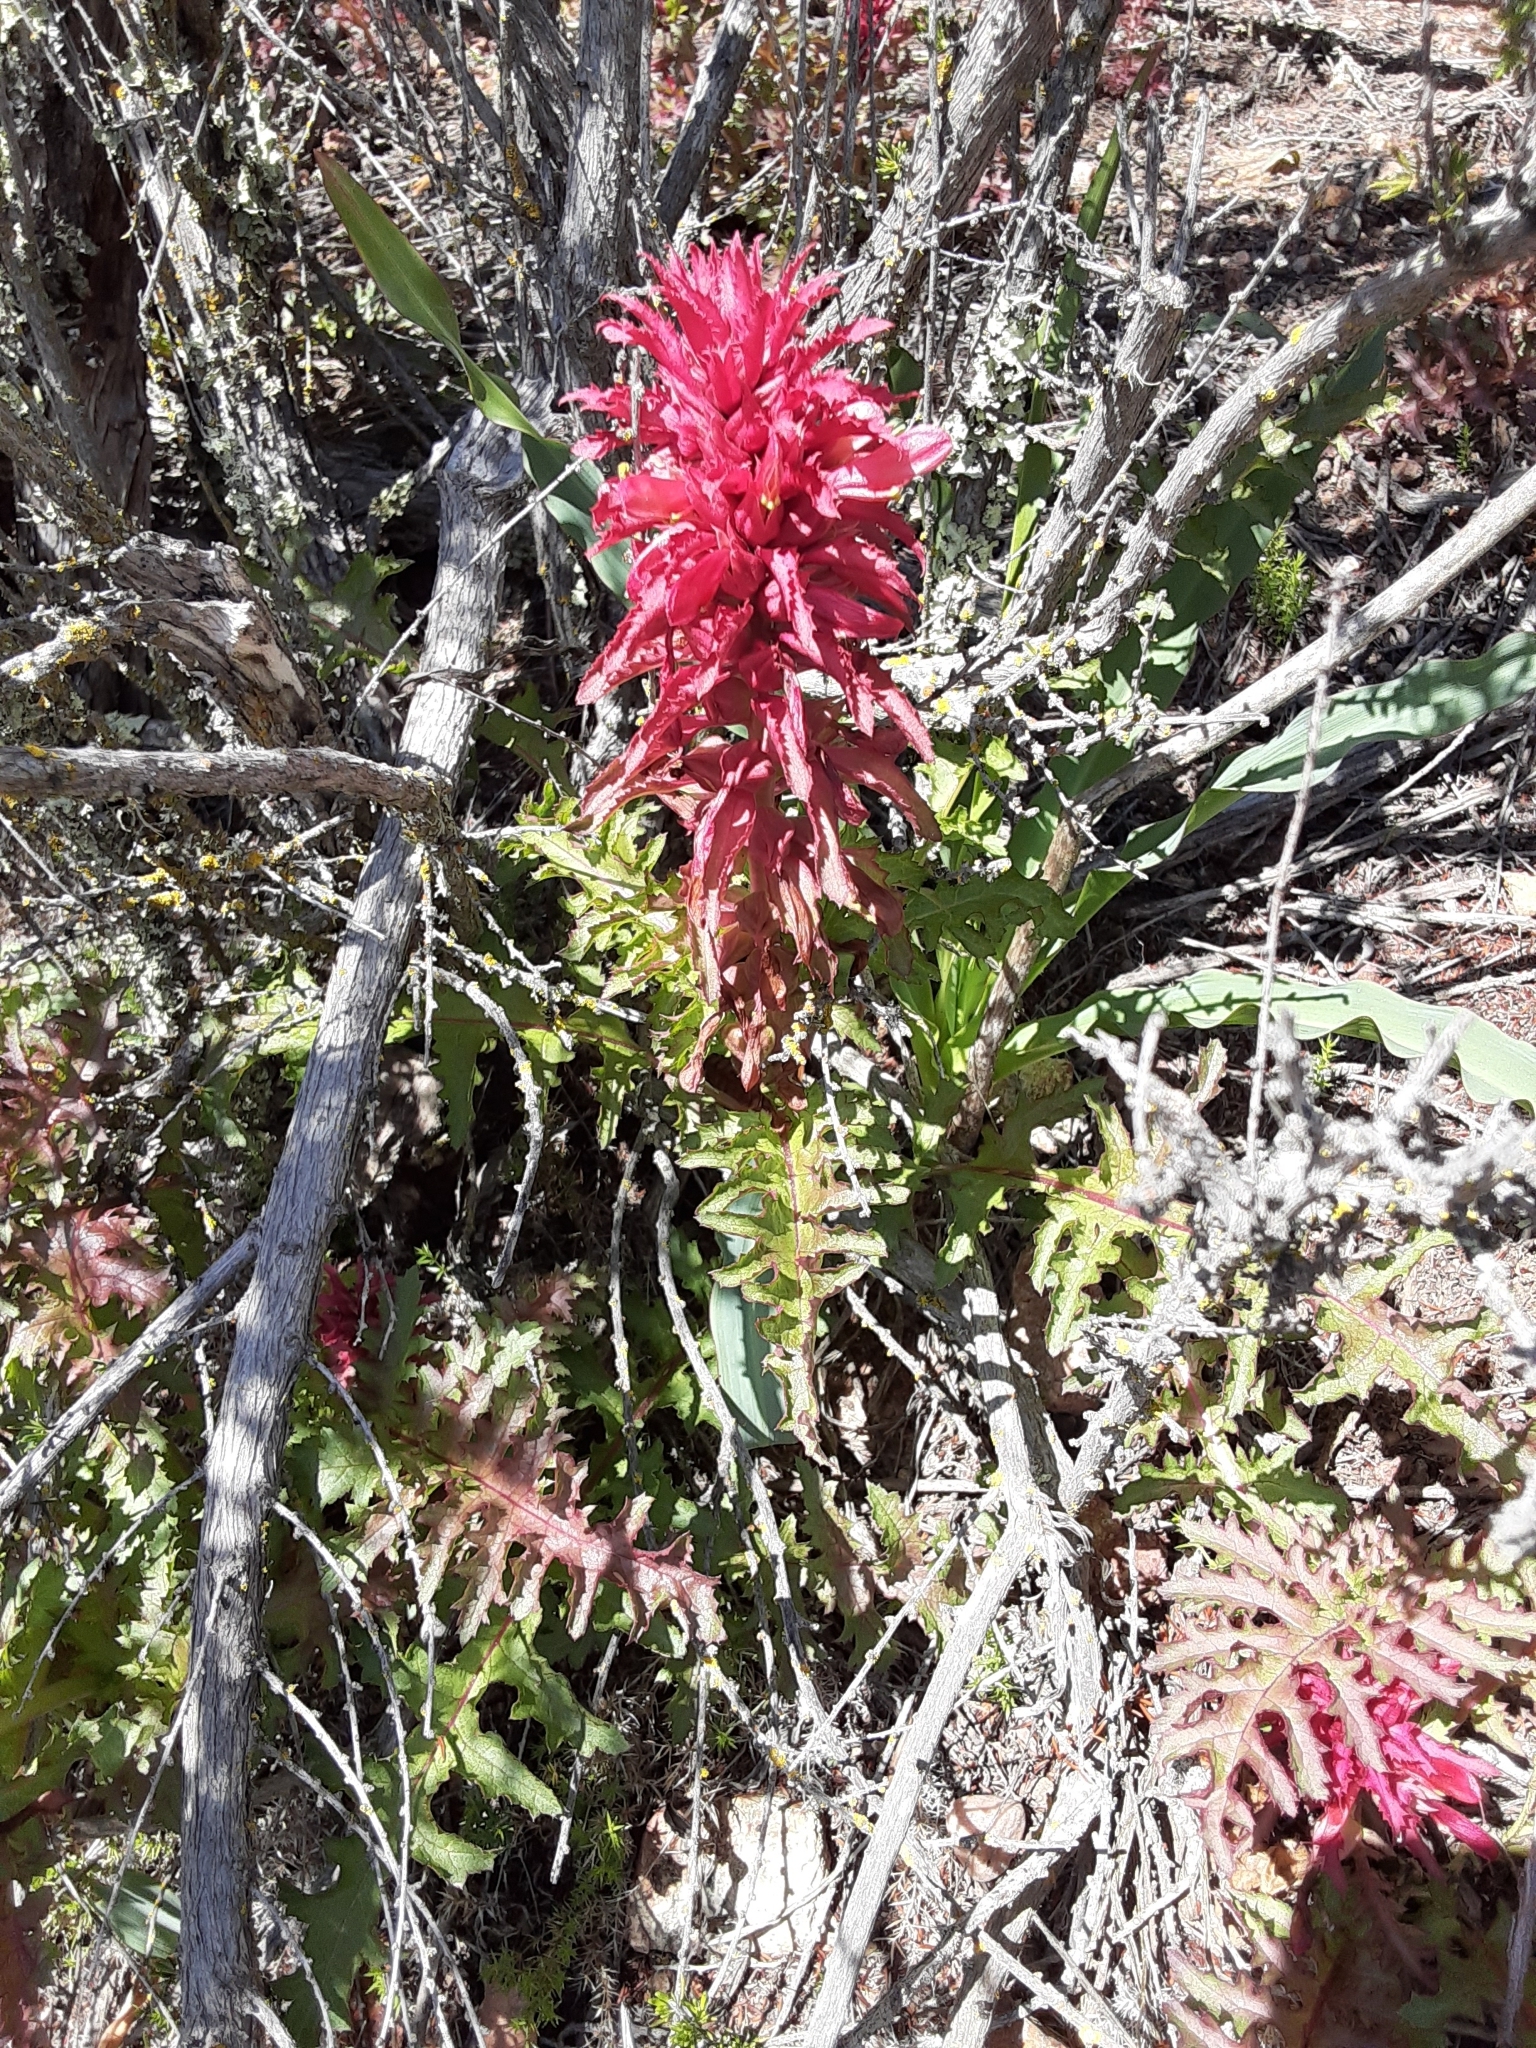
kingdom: Plantae
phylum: Tracheophyta
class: Magnoliopsida
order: Lamiales
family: Orobanchaceae
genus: Pedicularis
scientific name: Pedicularis densiflora
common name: Indian warrior
